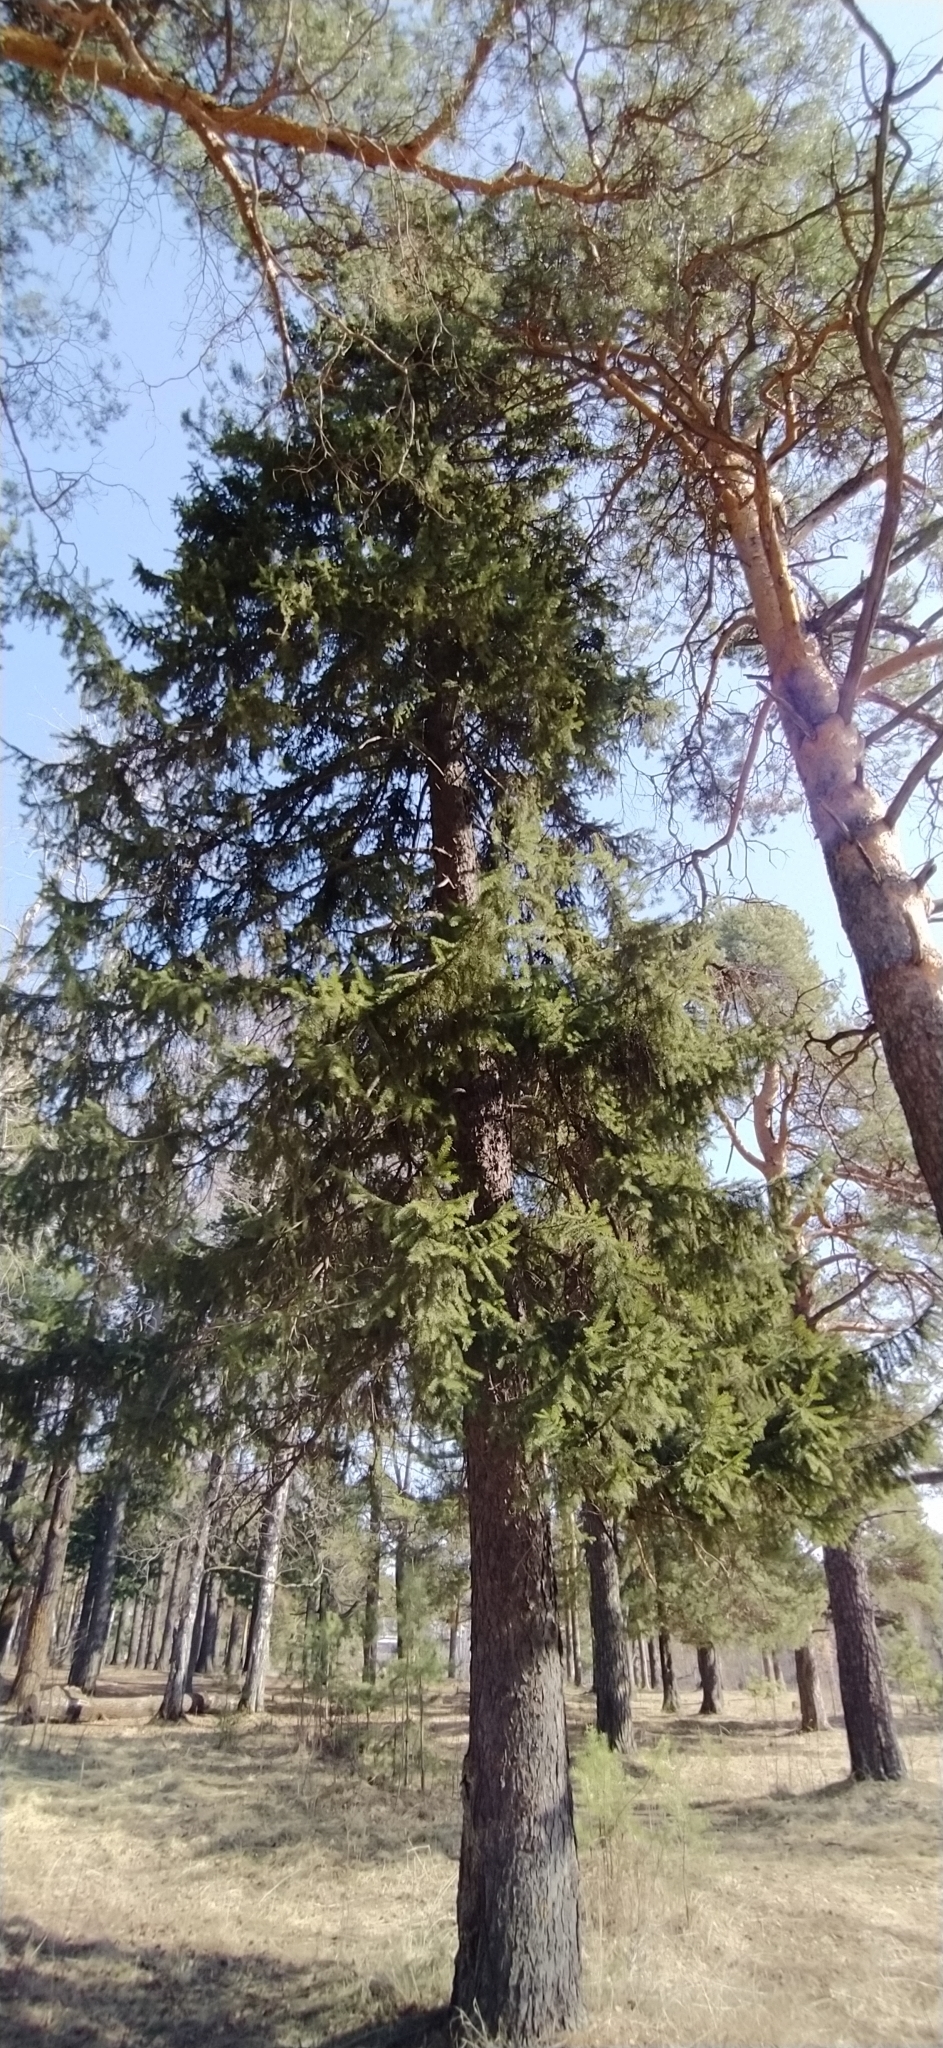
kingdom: Plantae
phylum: Tracheophyta
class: Pinopsida
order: Pinales
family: Pinaceae
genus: Picea
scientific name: Picea obovata
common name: Siberian spruce
